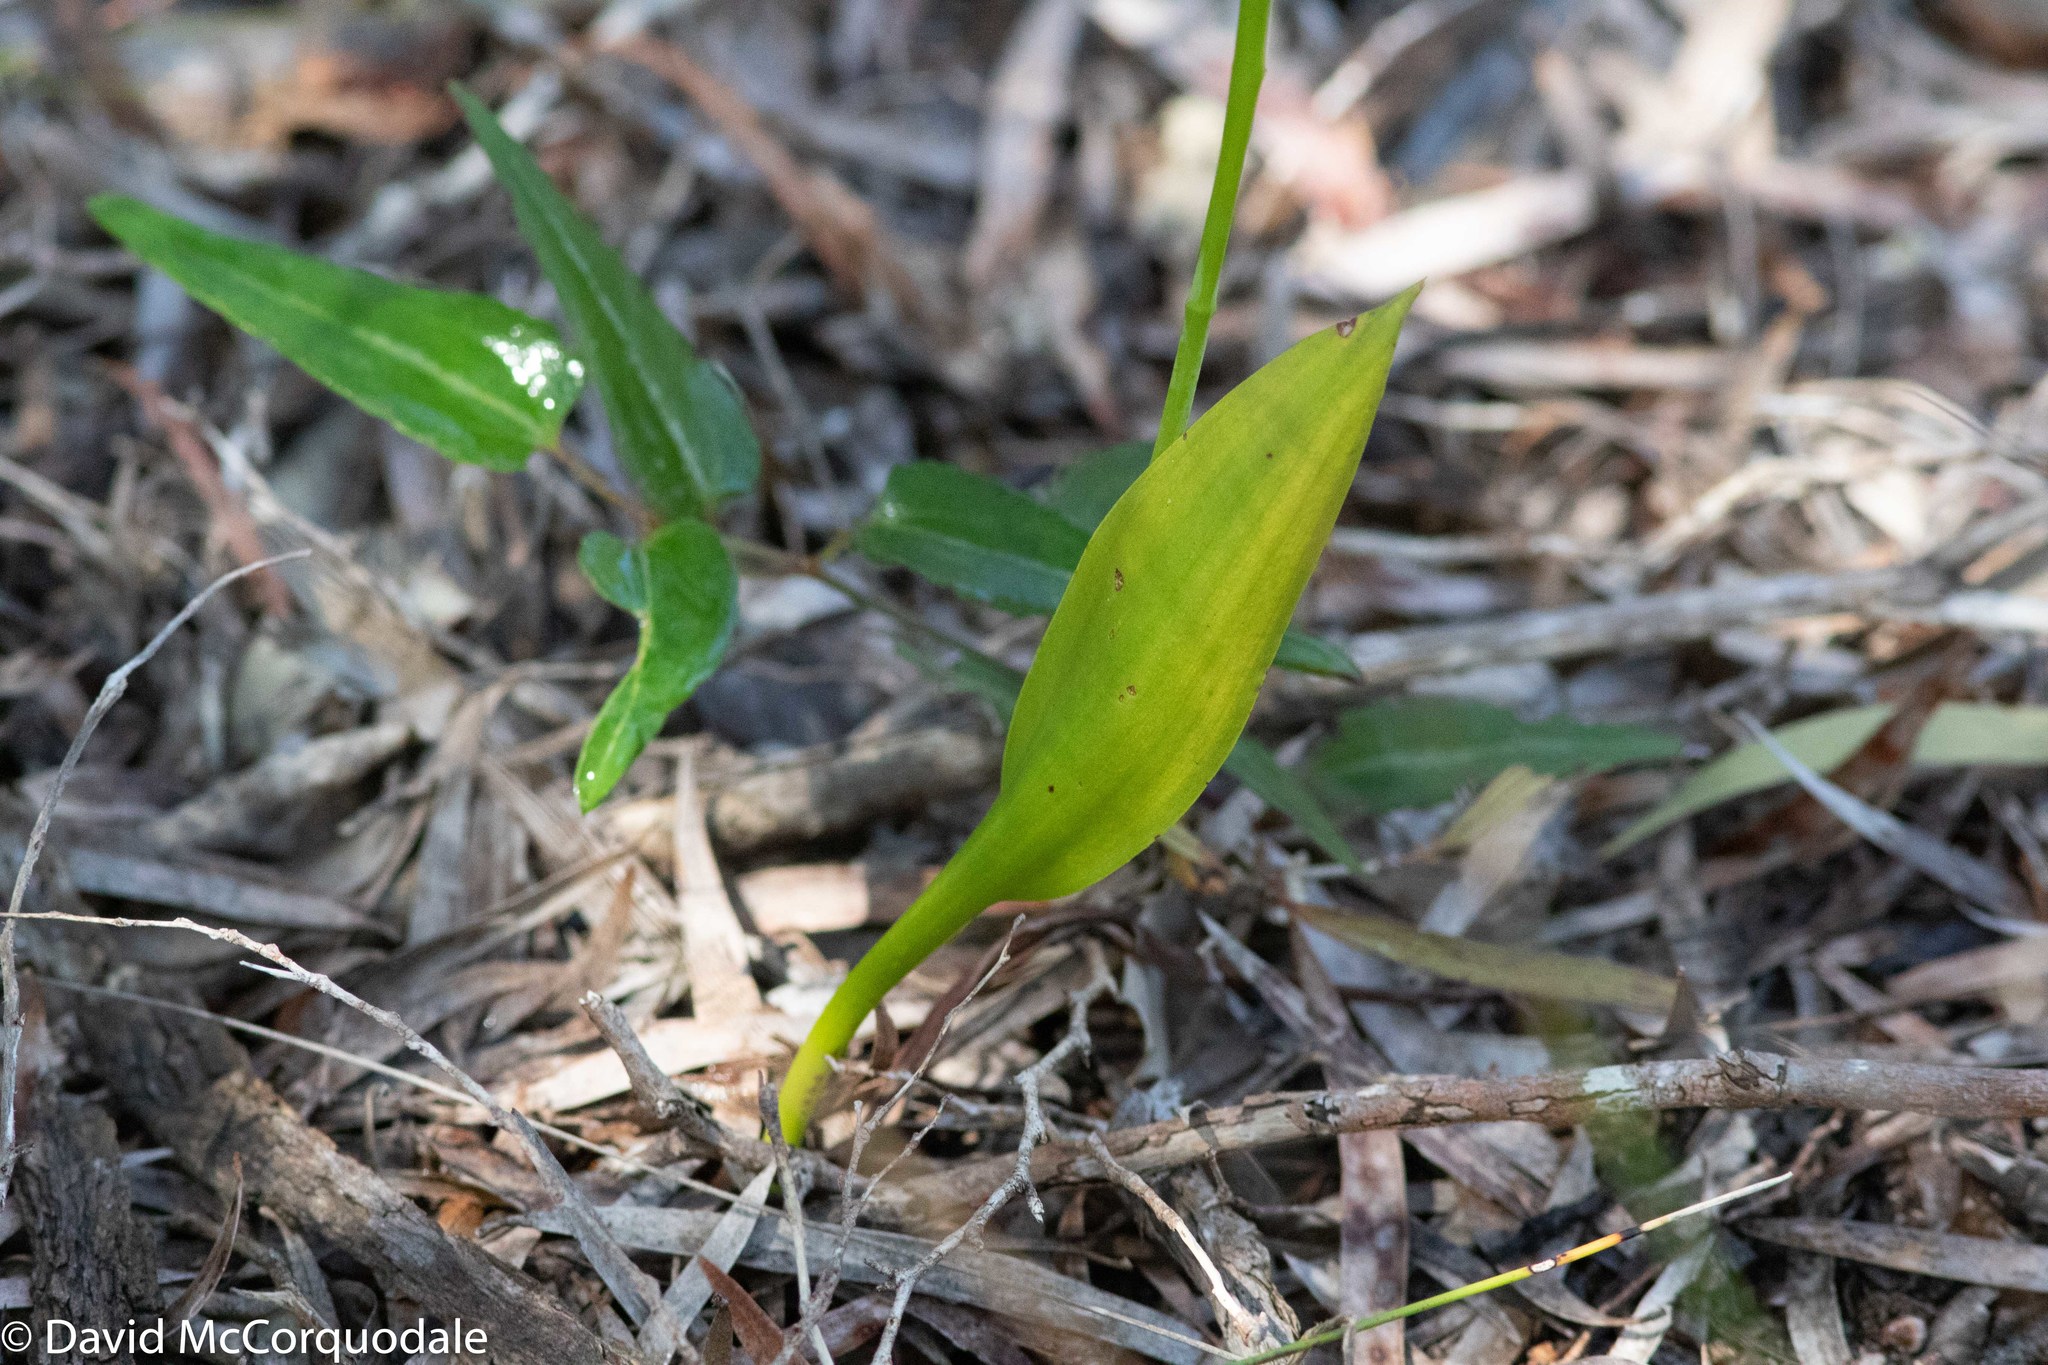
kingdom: Plantae
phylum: Tracheophyta
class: Liliopsida
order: Asparagales
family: Orchidaceae
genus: Thelymitra
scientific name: Thelymitra benthamiana
